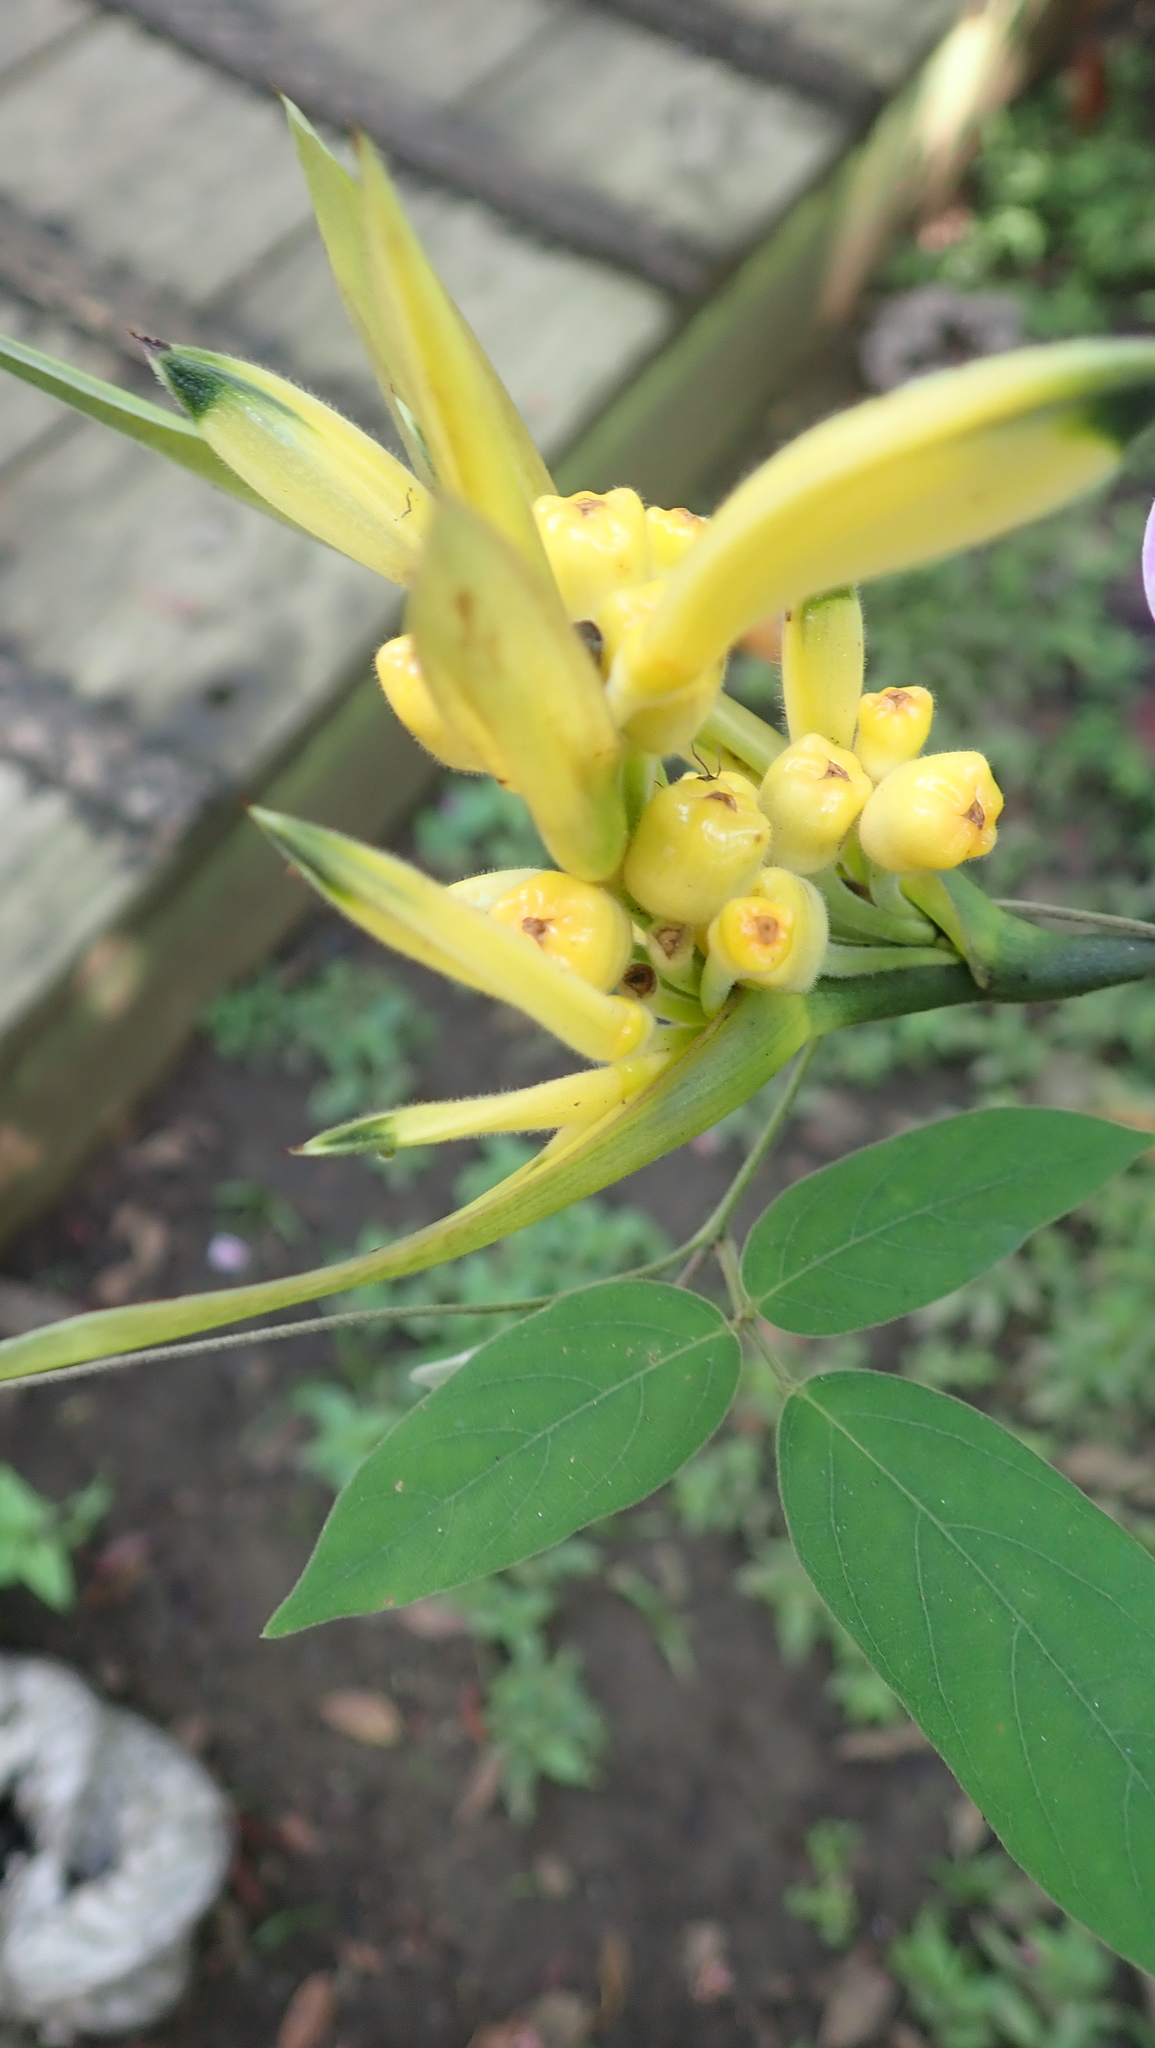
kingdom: Plantae
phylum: Tracheophyta
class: Liliopsida
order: Zingiberales
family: Heliconiaceae
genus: Heliconia
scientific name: Heliconia hirsuta
